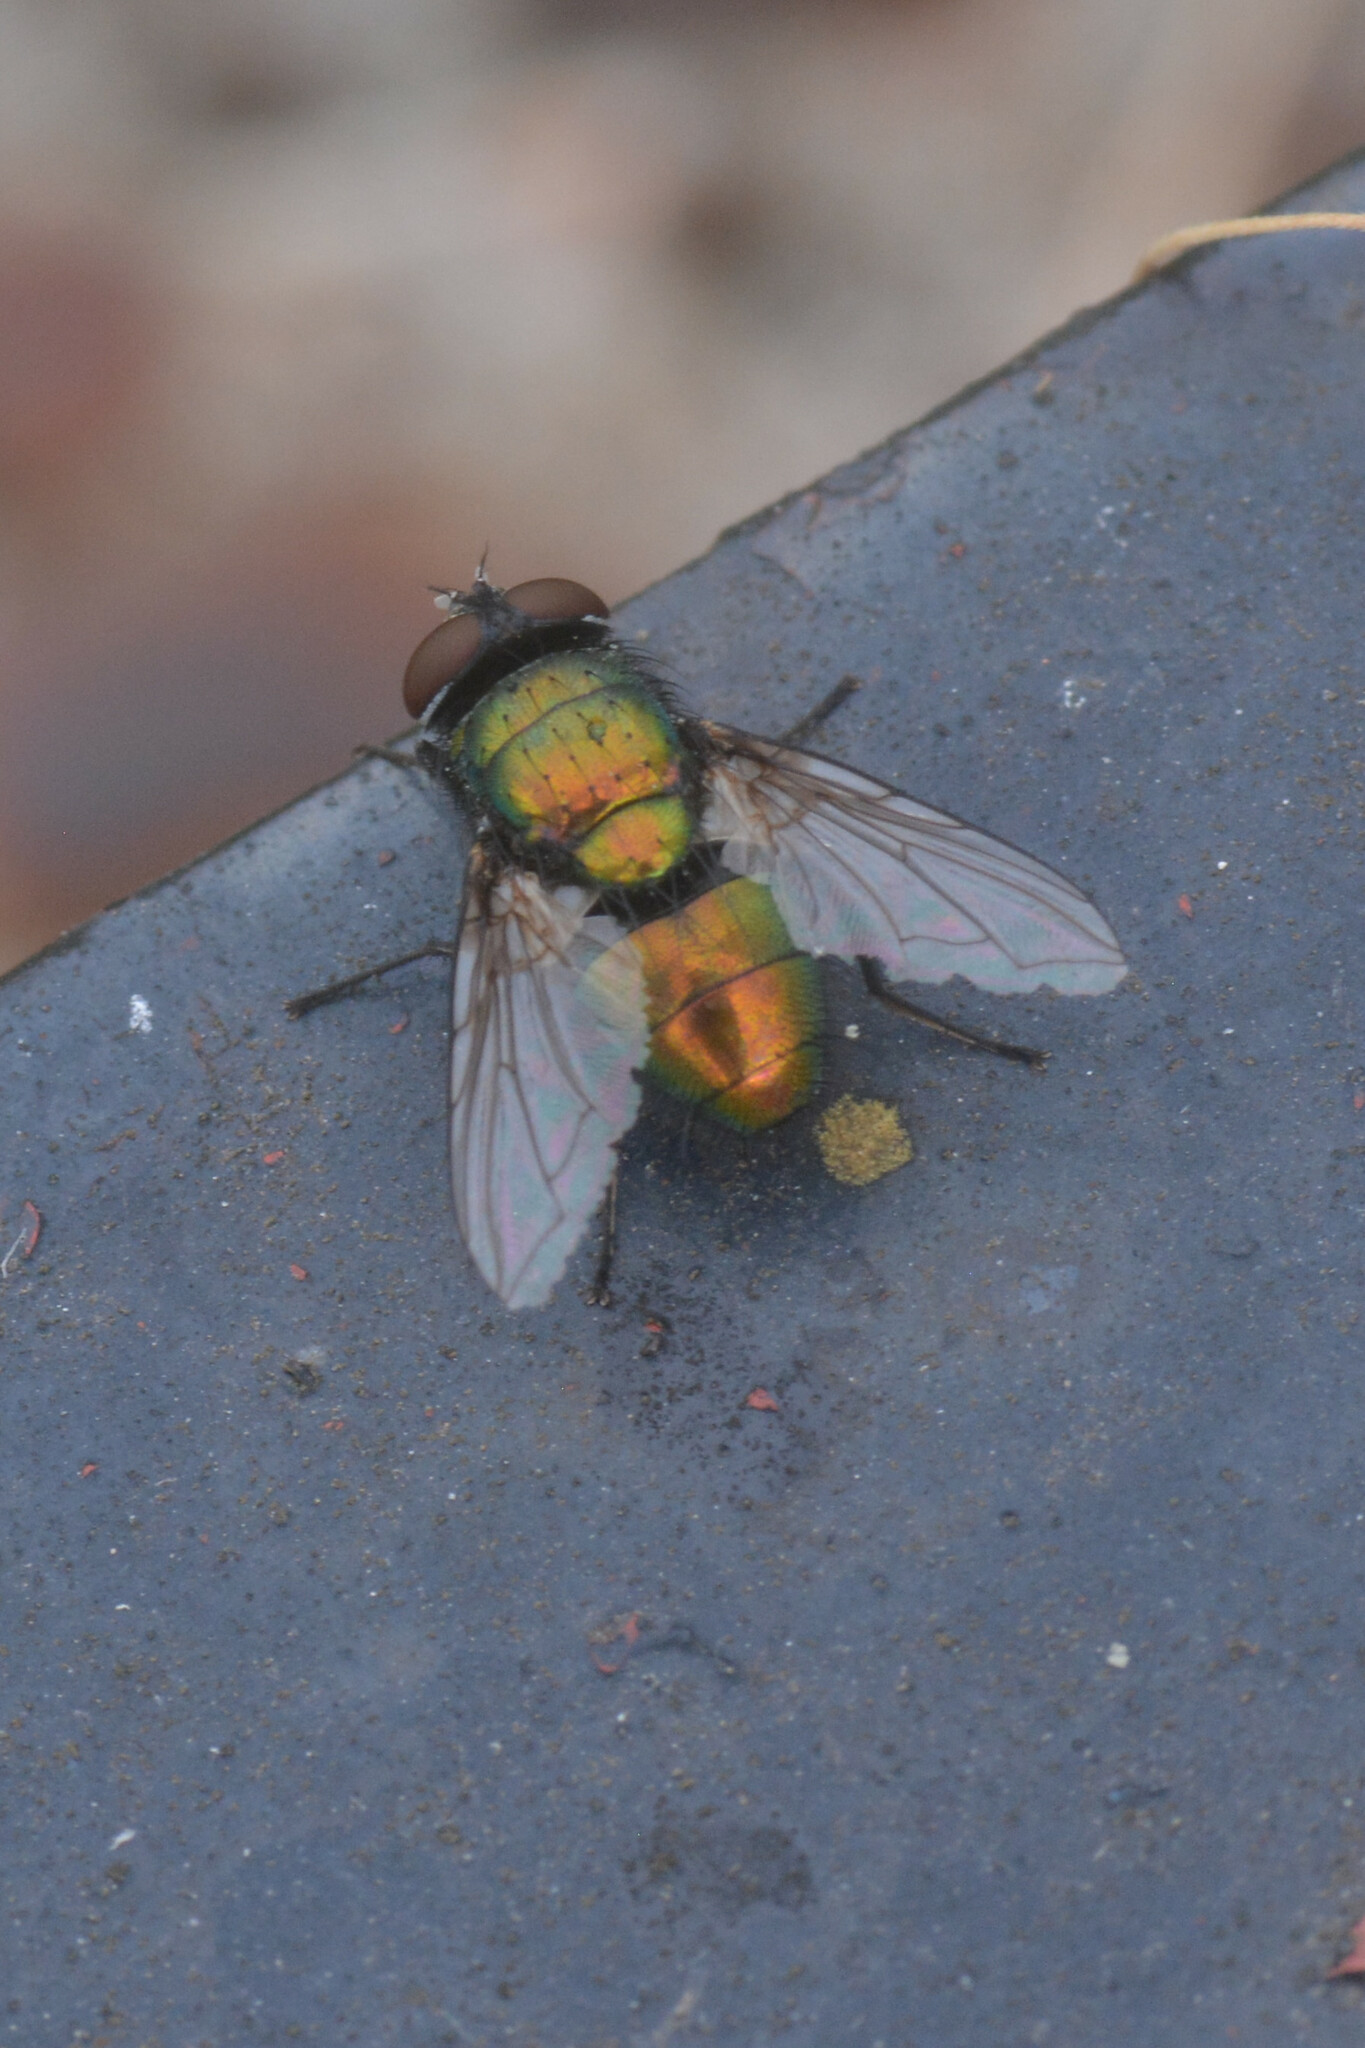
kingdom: Animalia
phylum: Arthropoda
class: Insecta
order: Diptera
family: Calliphoridae
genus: Lucilia
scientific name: Lucilia
